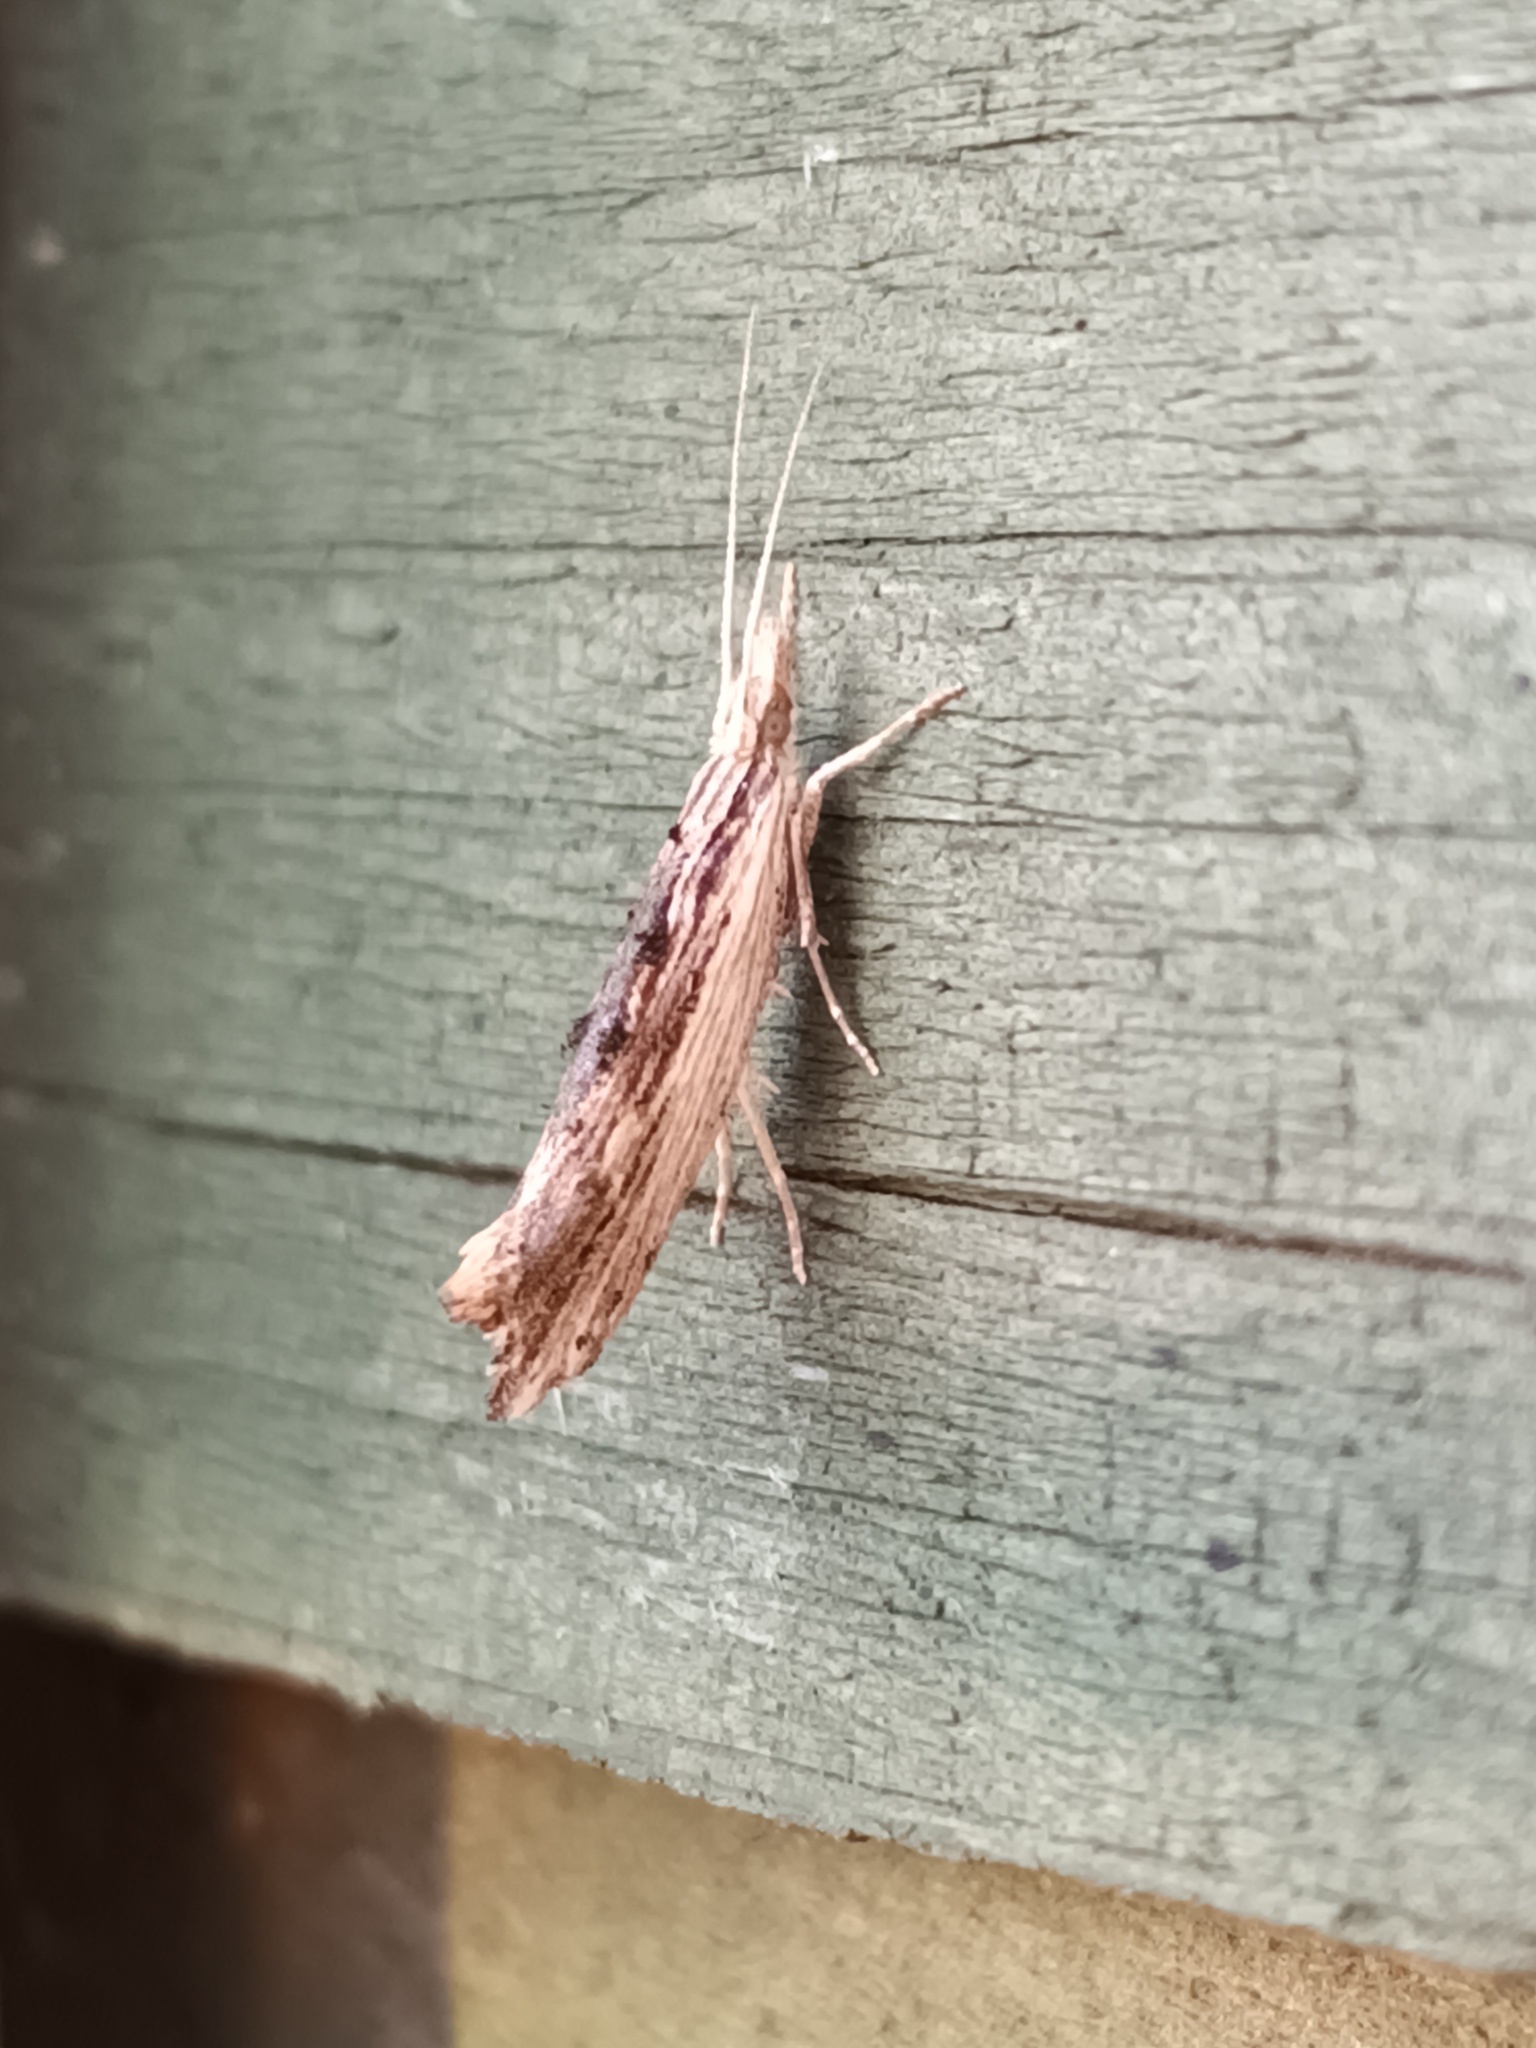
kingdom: Animalia
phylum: Arthropoda
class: Insecta
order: Lepidoptera
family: Ypsolophidae
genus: Ypsolopha
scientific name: Ypsolopha scabrella
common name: Wainscot smudge
